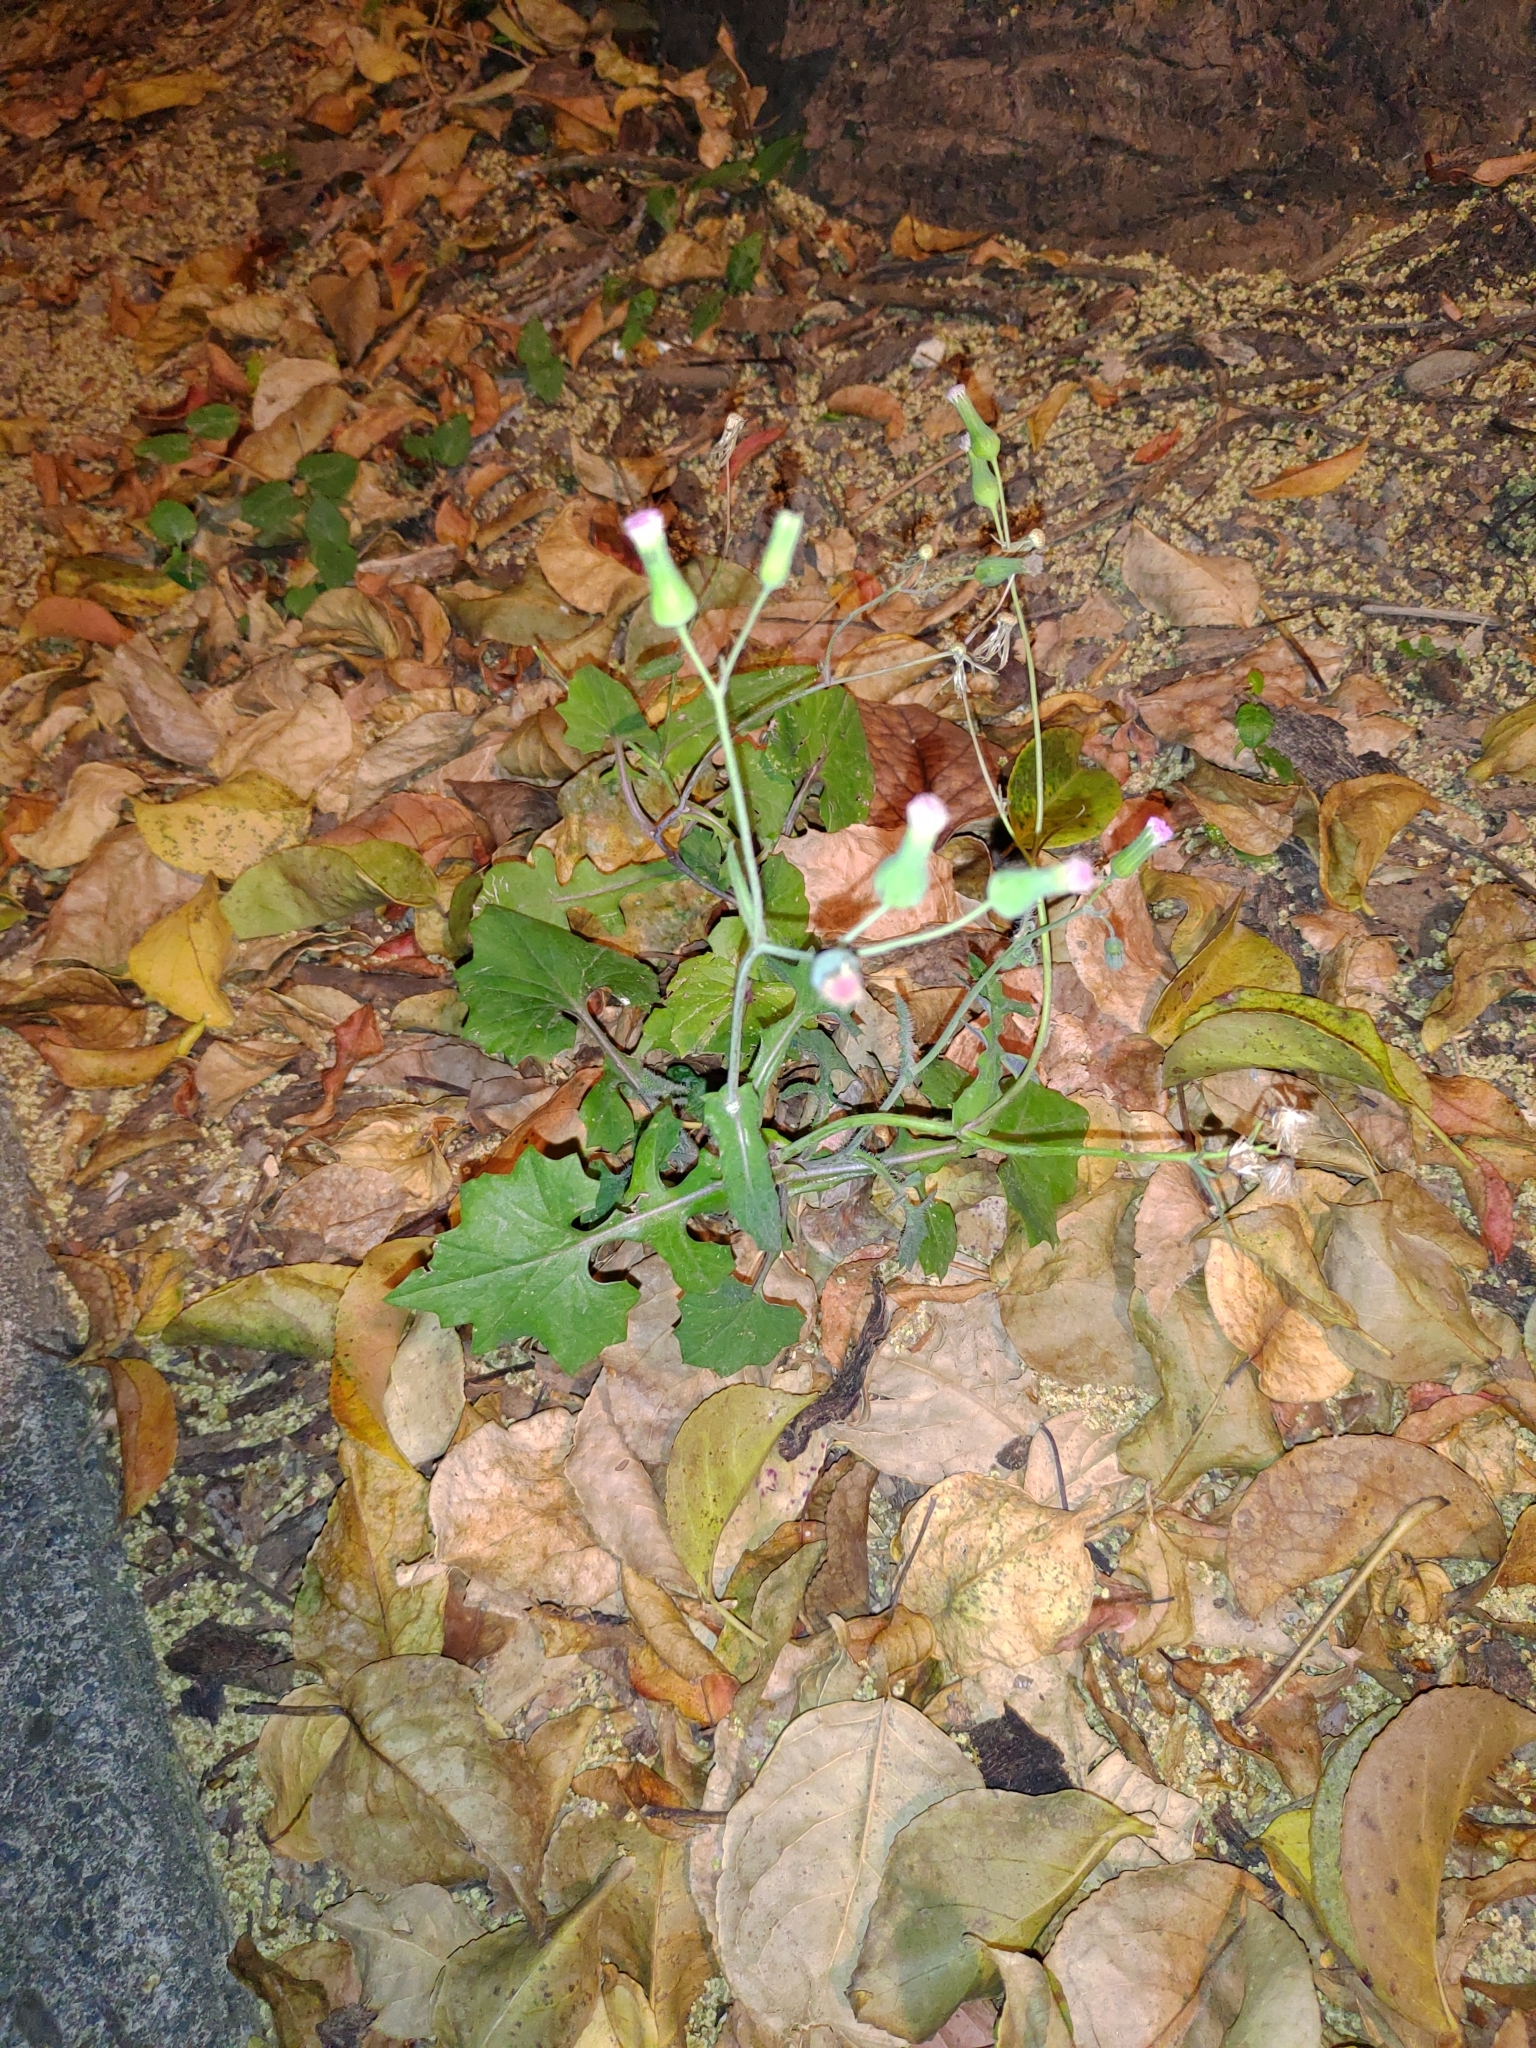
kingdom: Plantae
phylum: Tracheophyta
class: Magnoliopsida
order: Asterales
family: Asteraceae
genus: Emilia
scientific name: Emilia javanica
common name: Tassel-flower
